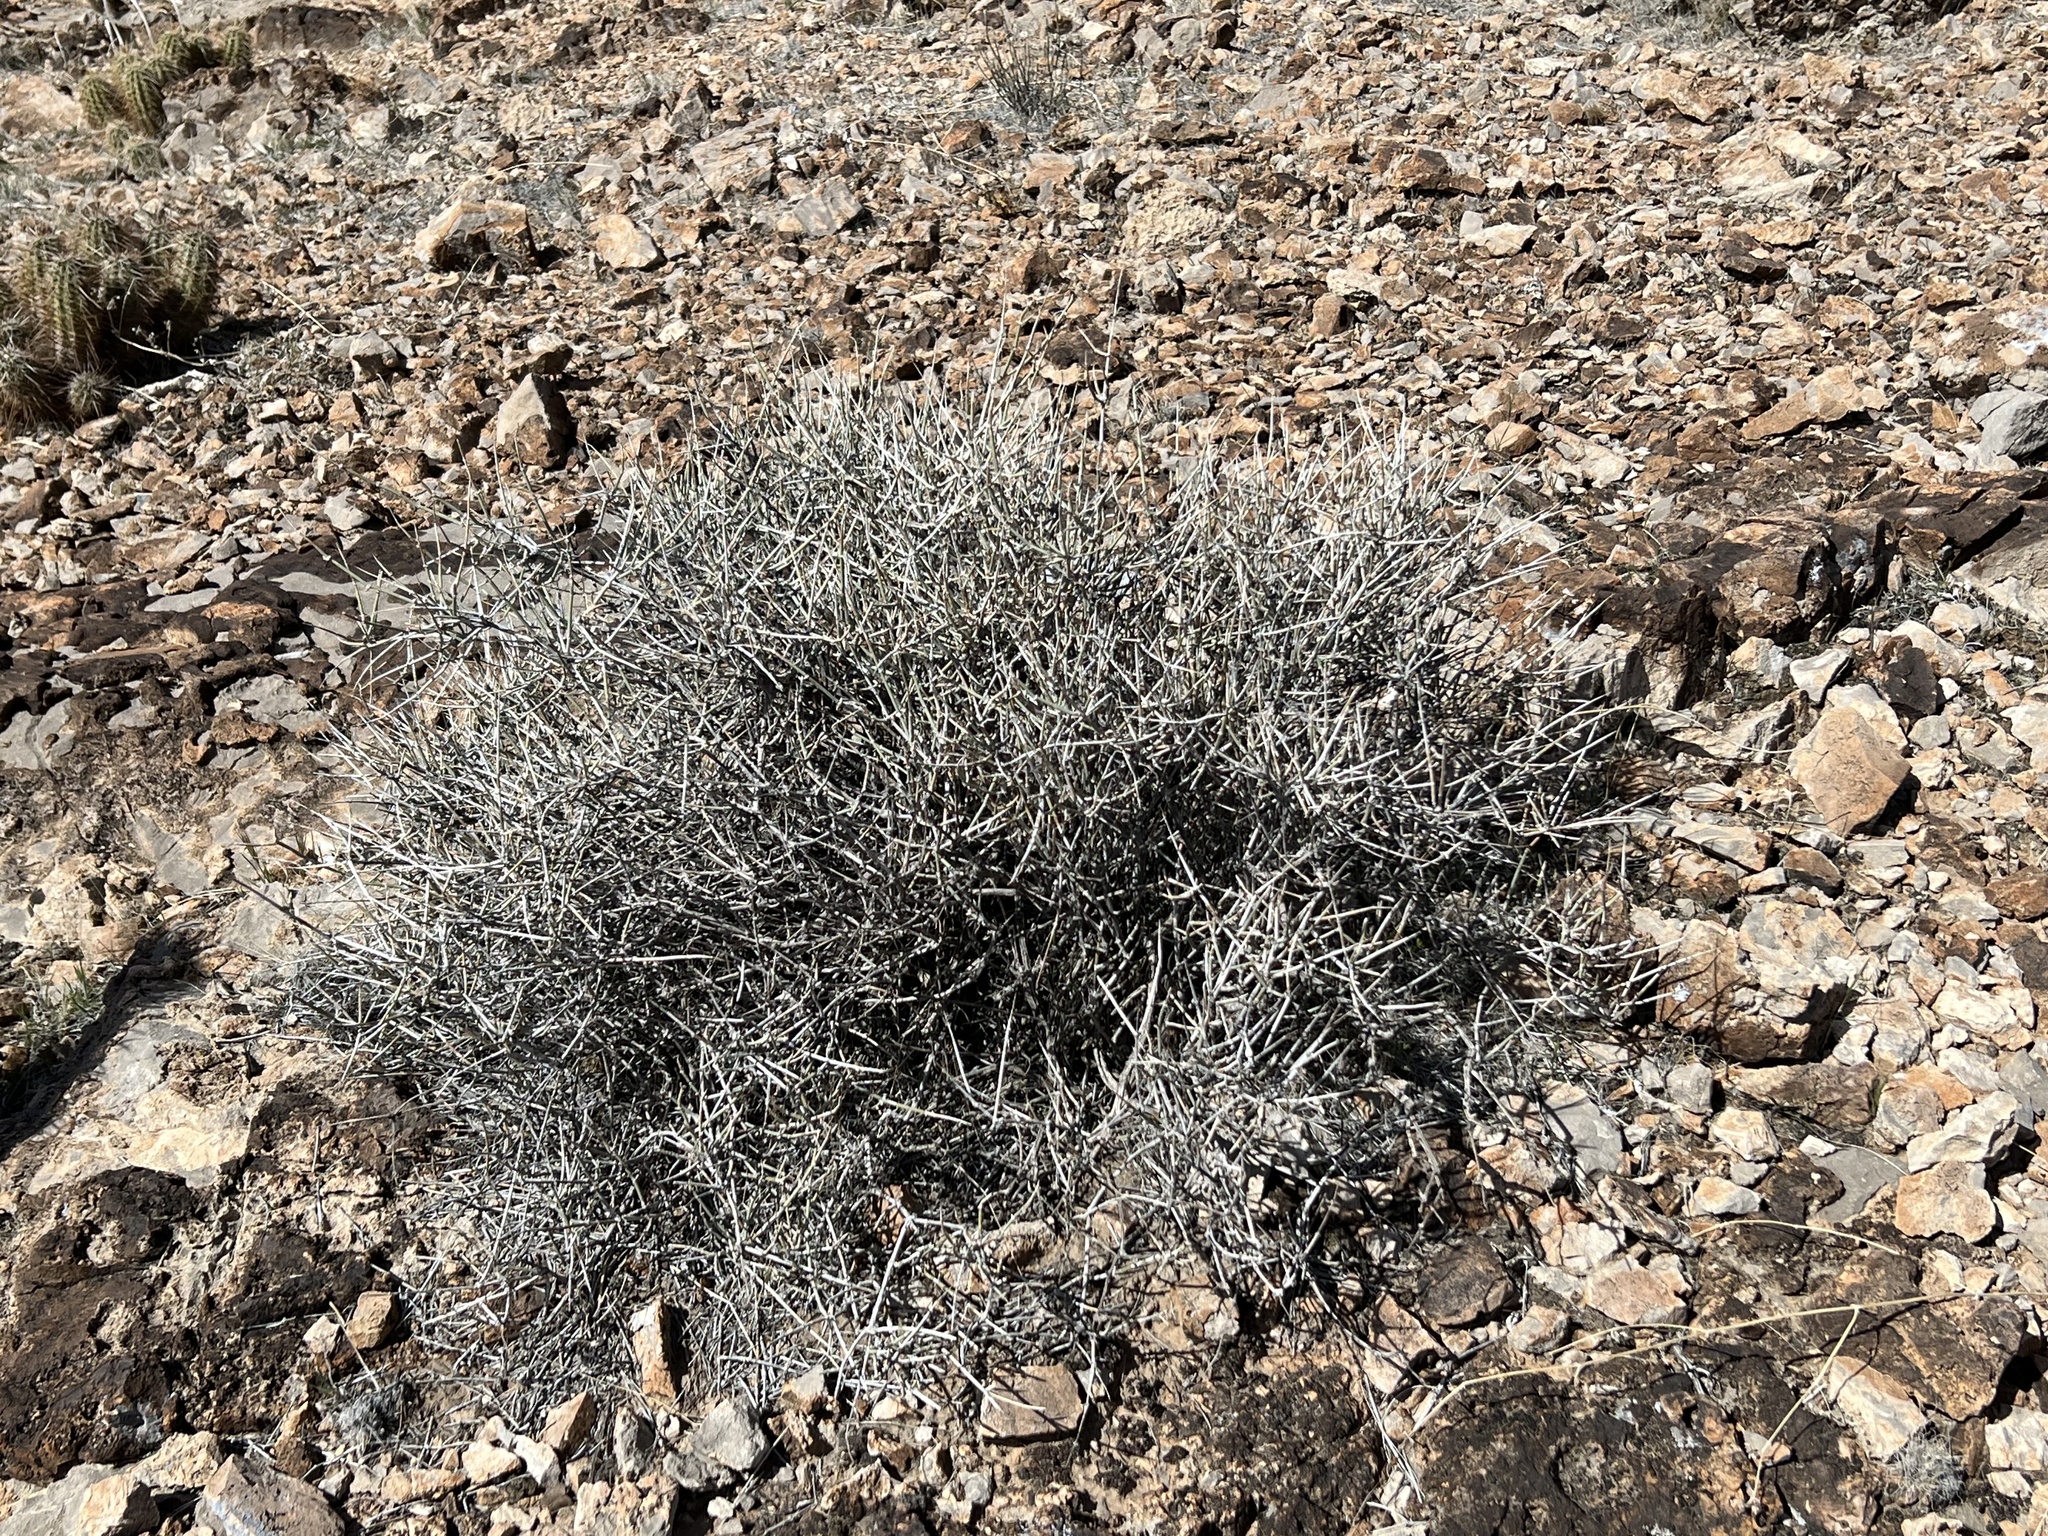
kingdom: Plantae
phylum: Tracheophyta
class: Gnetopsida
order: Ephedrales
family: Ephedraceae
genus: Ephedra
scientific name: Ephedra nevadensis
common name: Gray ephedra
